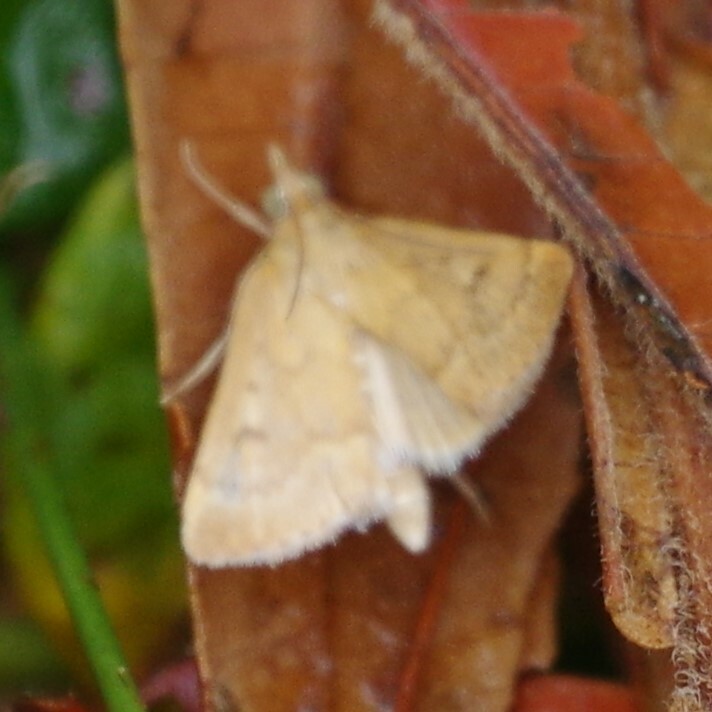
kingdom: Animalia
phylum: Arthropoda
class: Insecta
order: Lepidoptera
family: Crambidae
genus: Achyra
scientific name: Achyra rantalis
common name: Garden webworm
